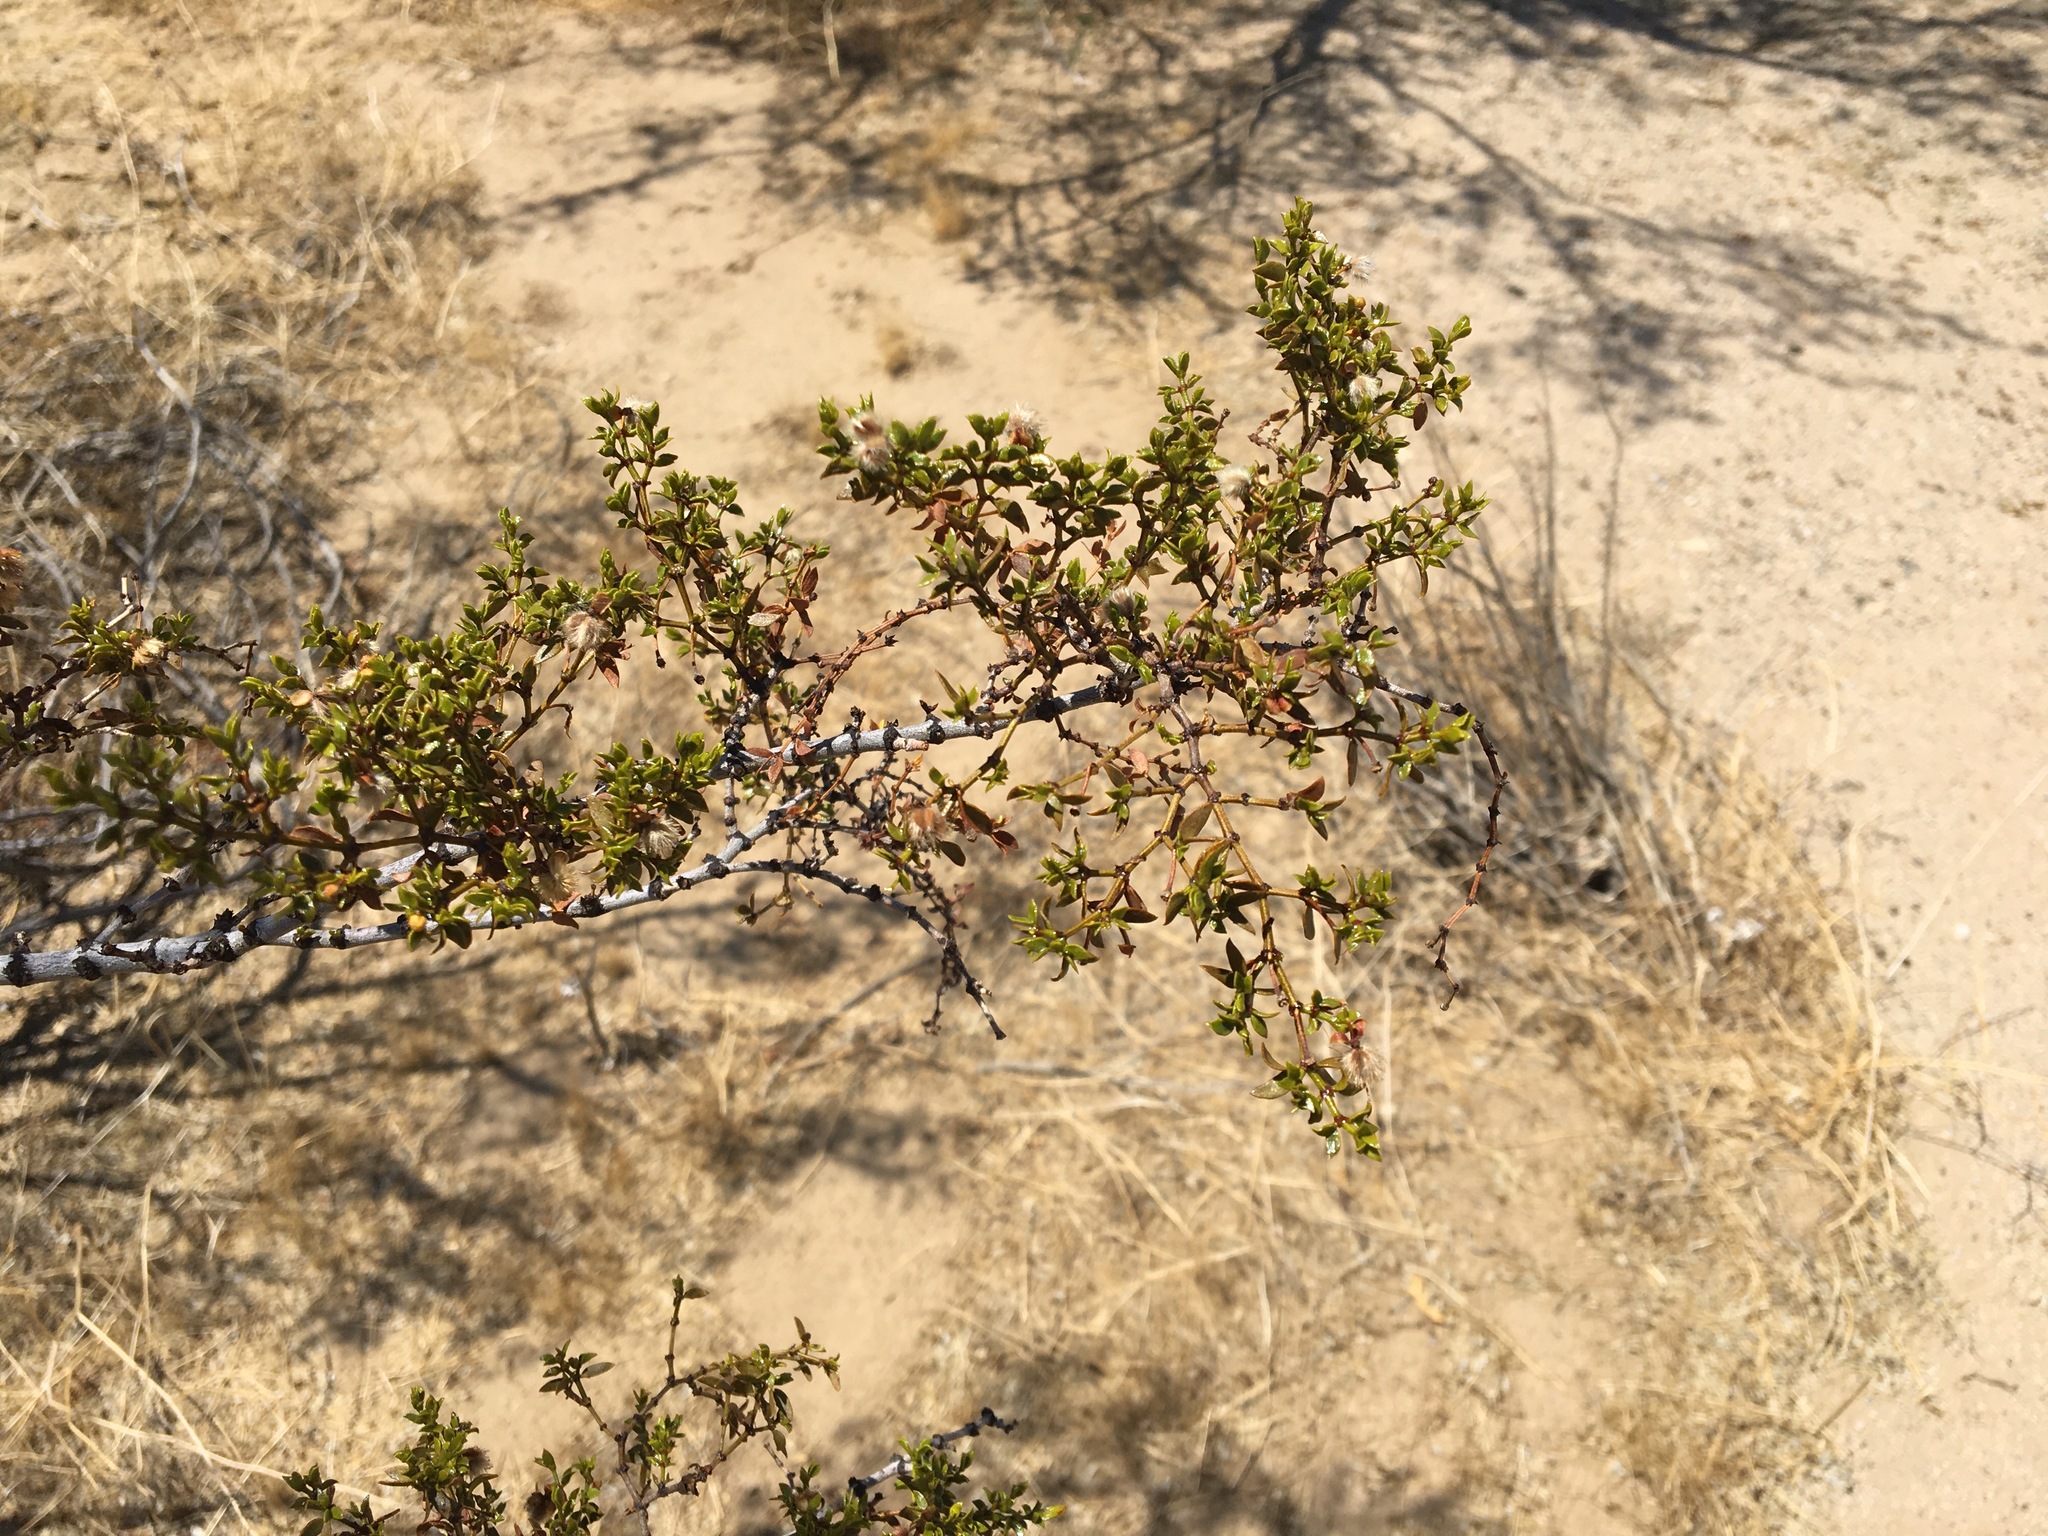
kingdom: Plantae
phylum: Tracheophyta
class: Magnoliopsida
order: Zygophyllales
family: Zygophyllaceae
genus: Larrea
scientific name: Larrea tridentata
